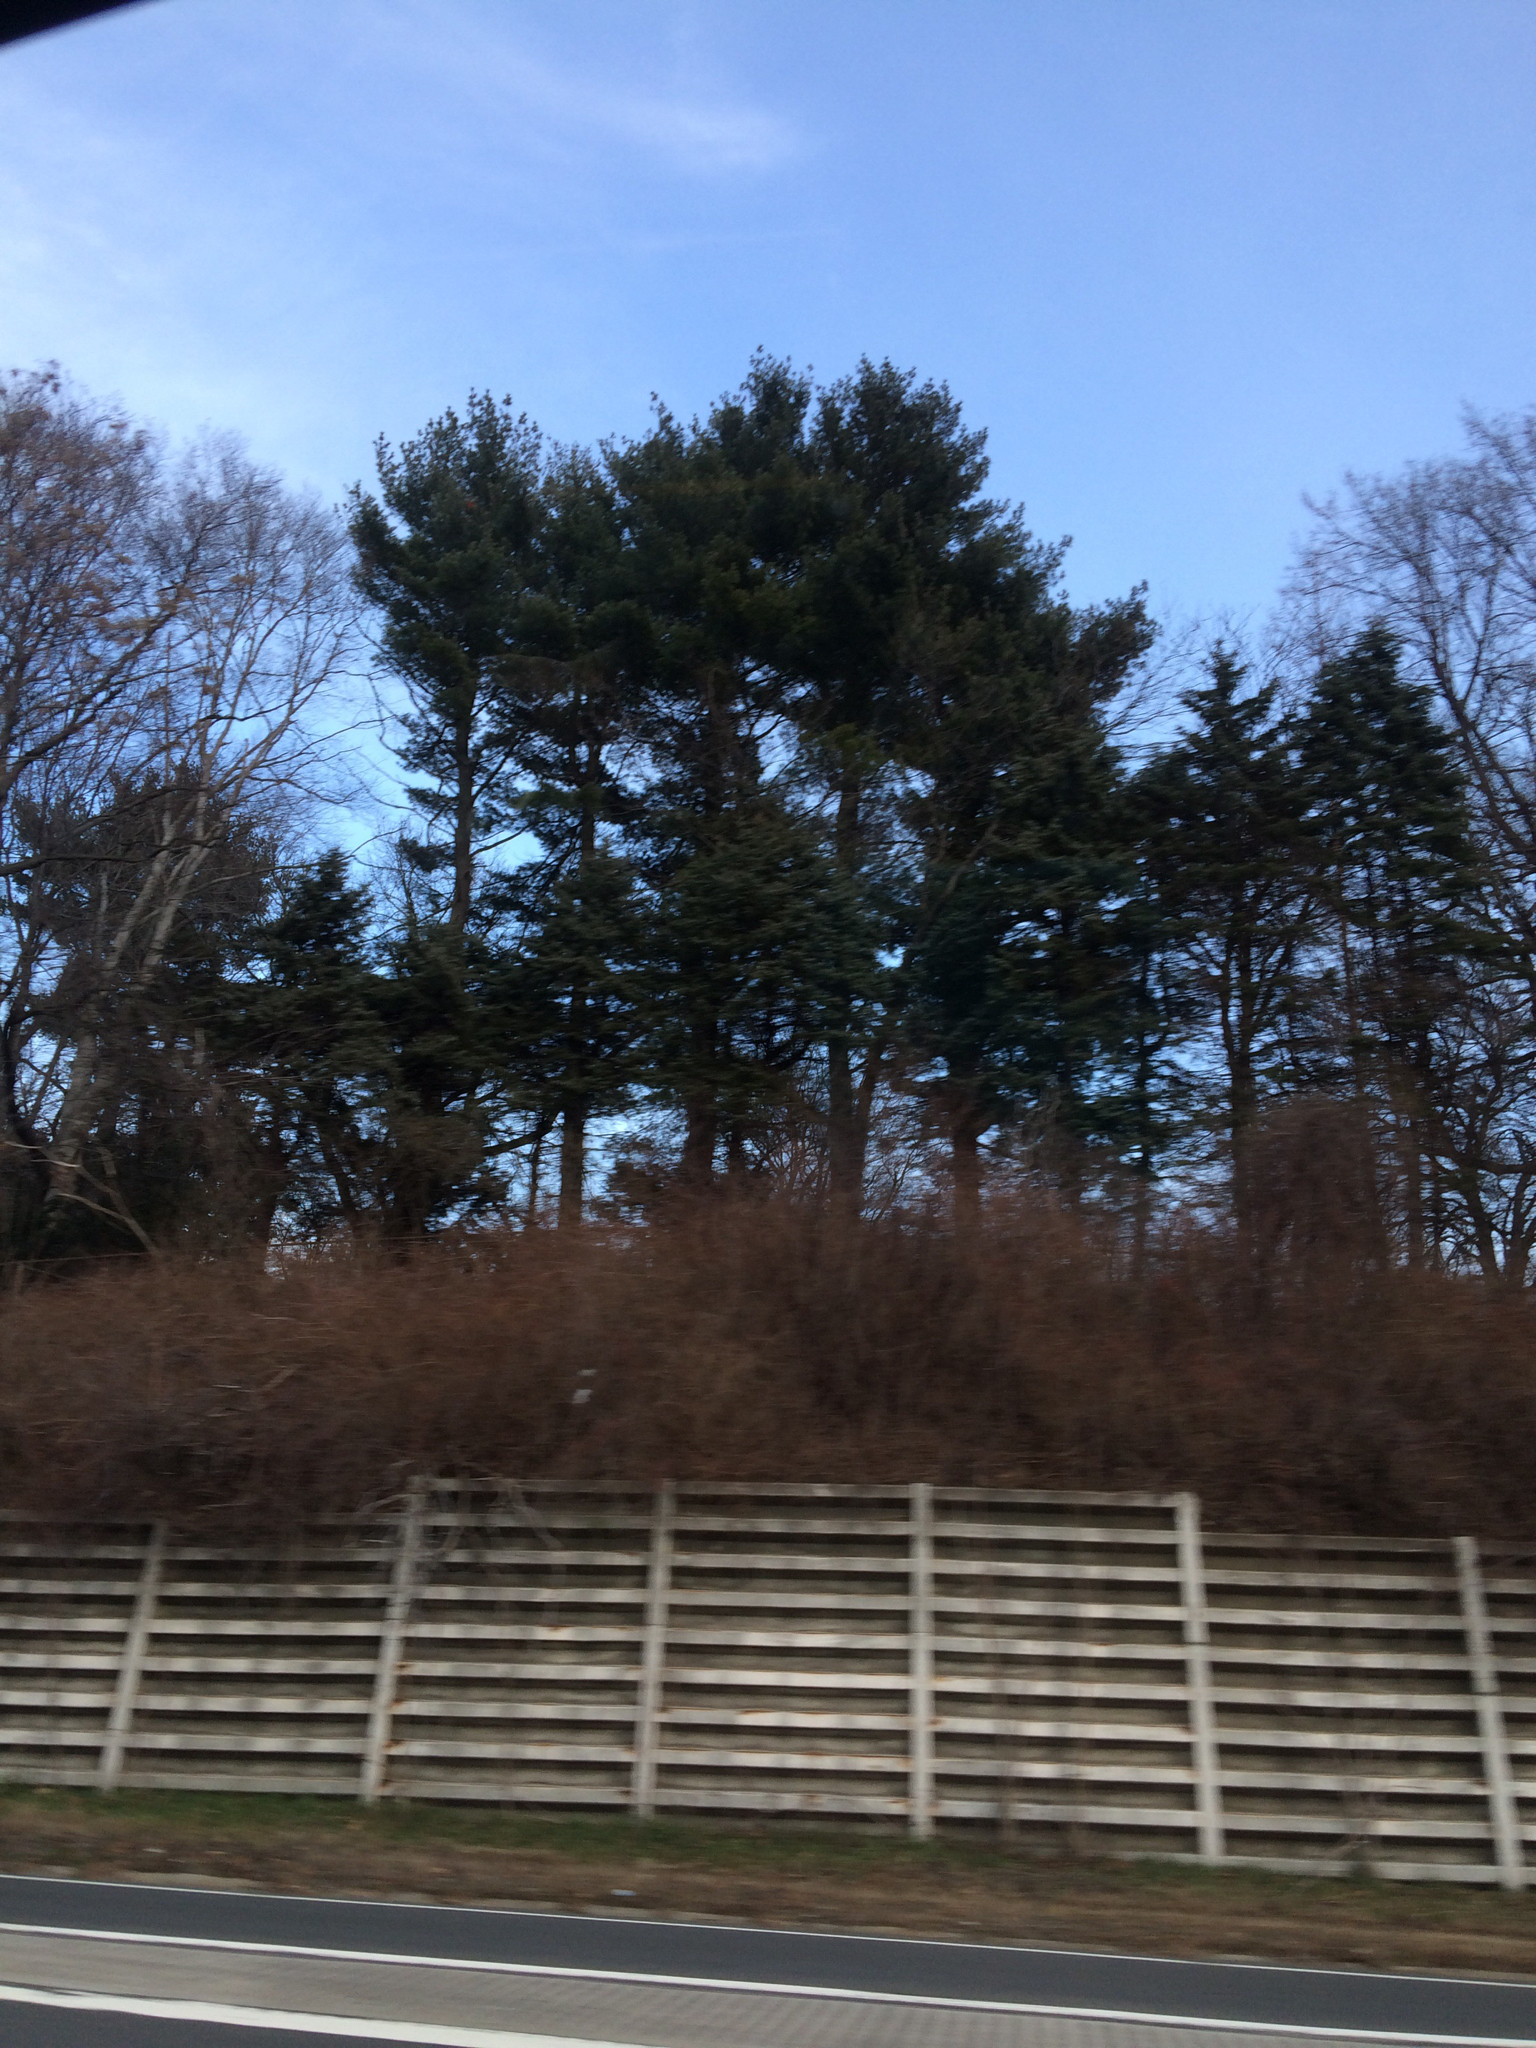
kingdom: Plantae
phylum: Tracheophyta
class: Pinopsida
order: Pinales
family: Pinaceae
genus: Pinus
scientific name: Pinus strobus
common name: Weymouth pine
